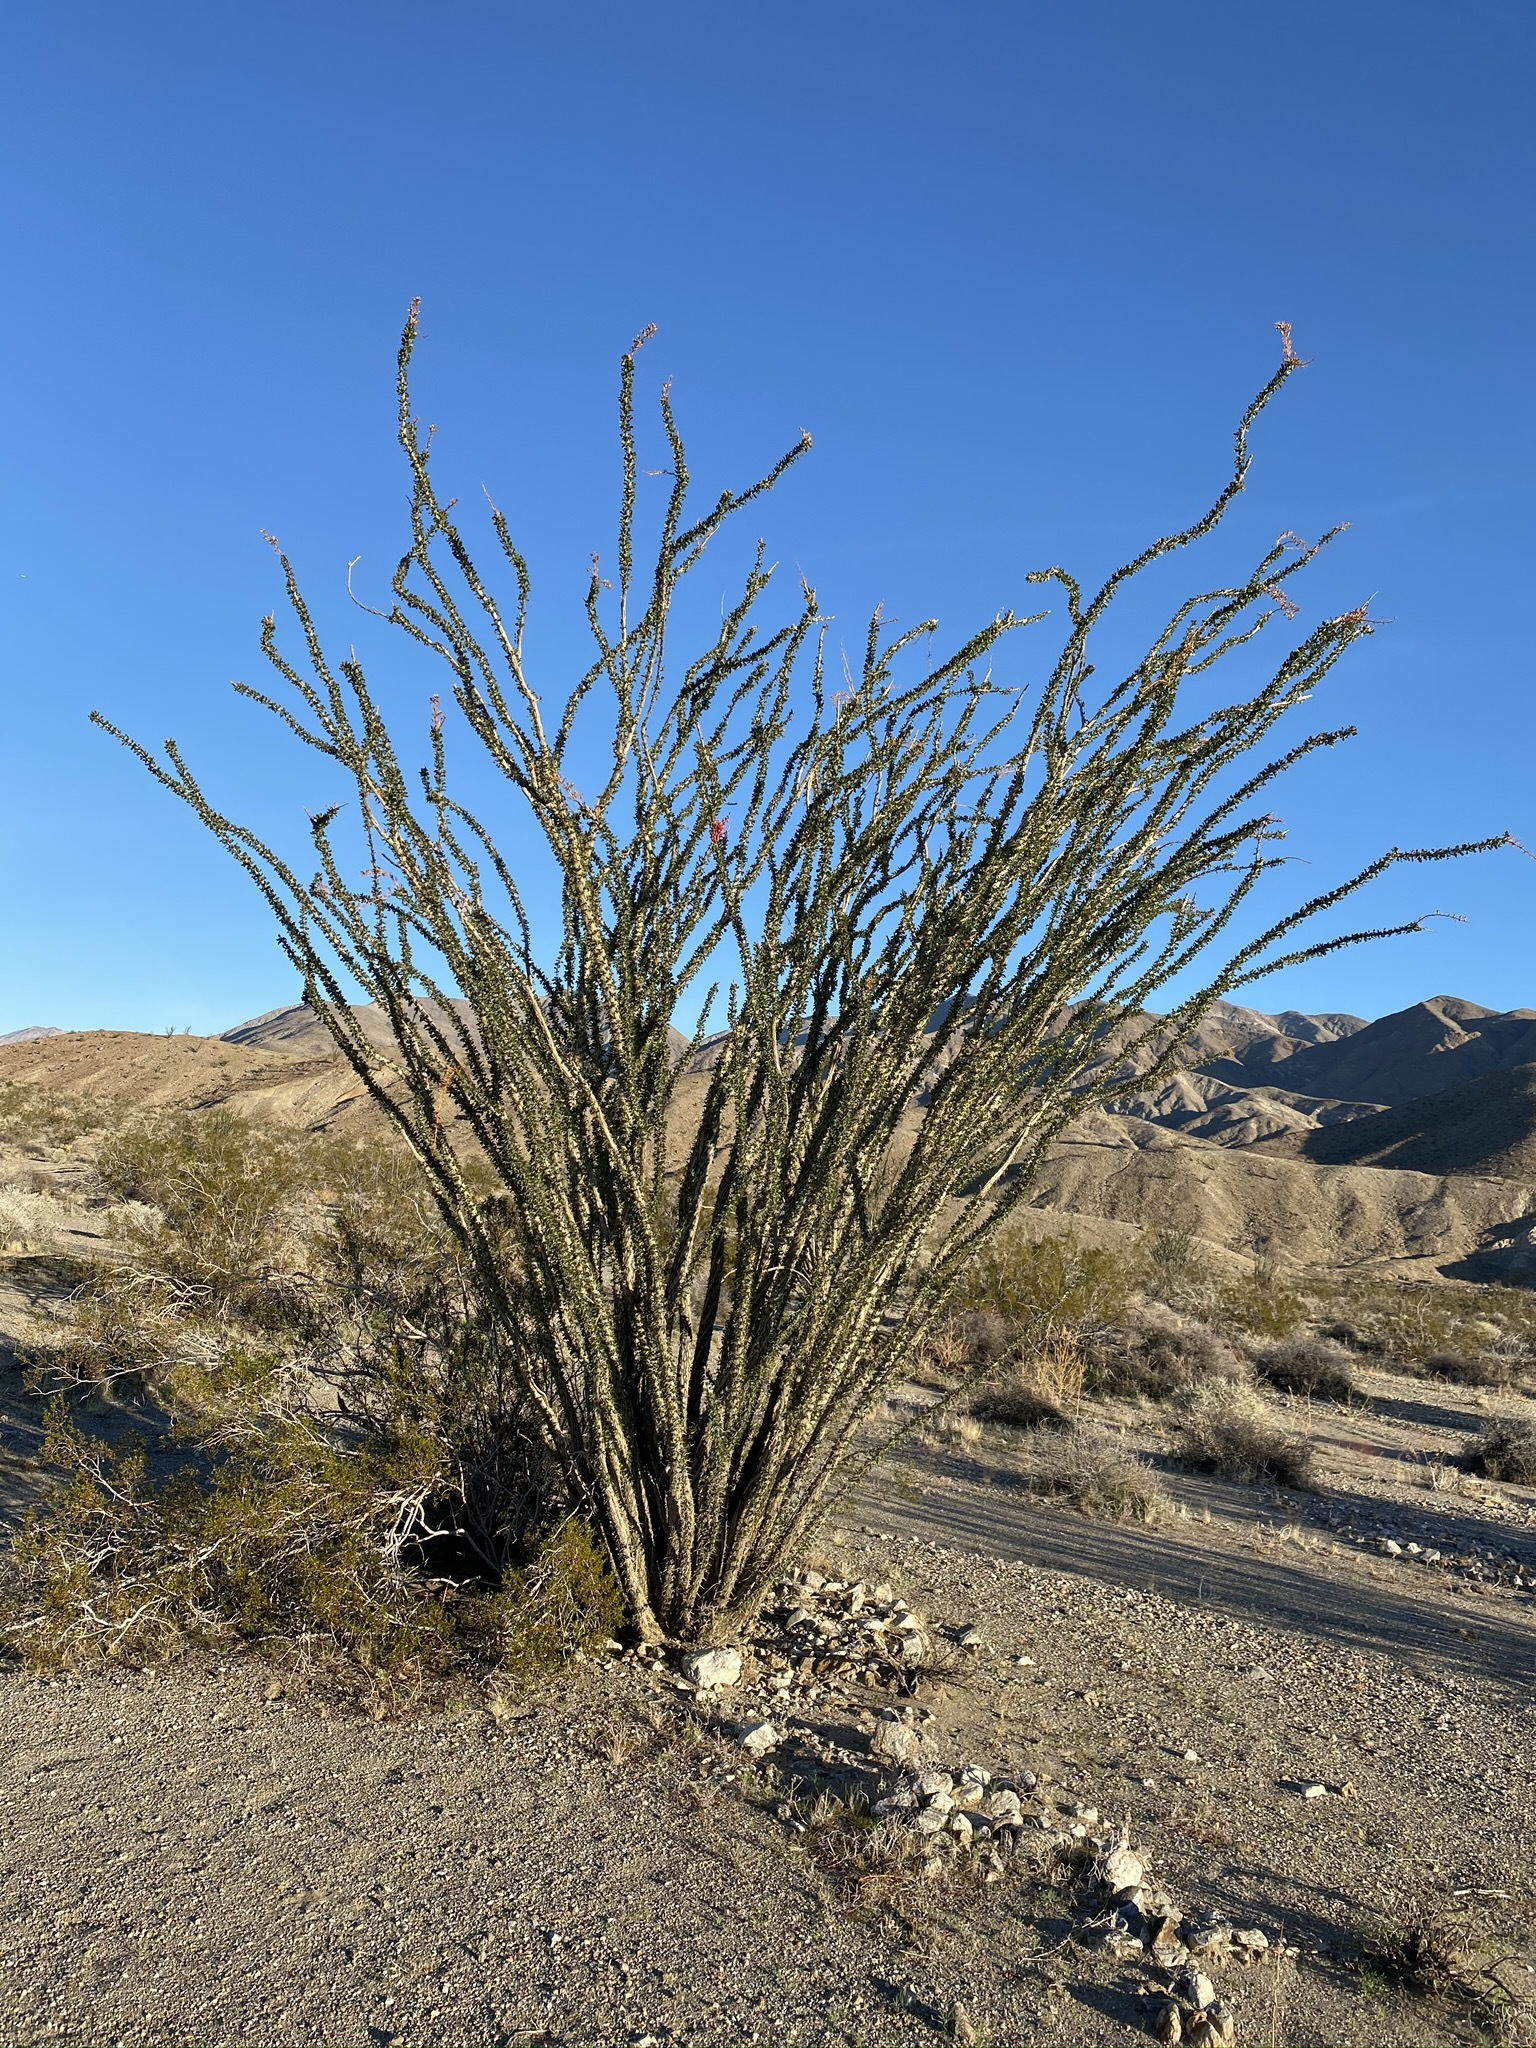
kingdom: Plantae
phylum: Tracheophyta
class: Magnoliopsida
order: Ericales
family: Fouquieriaceae
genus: Fouquieria
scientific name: Fouquieria splendens
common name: Vine-cactus
